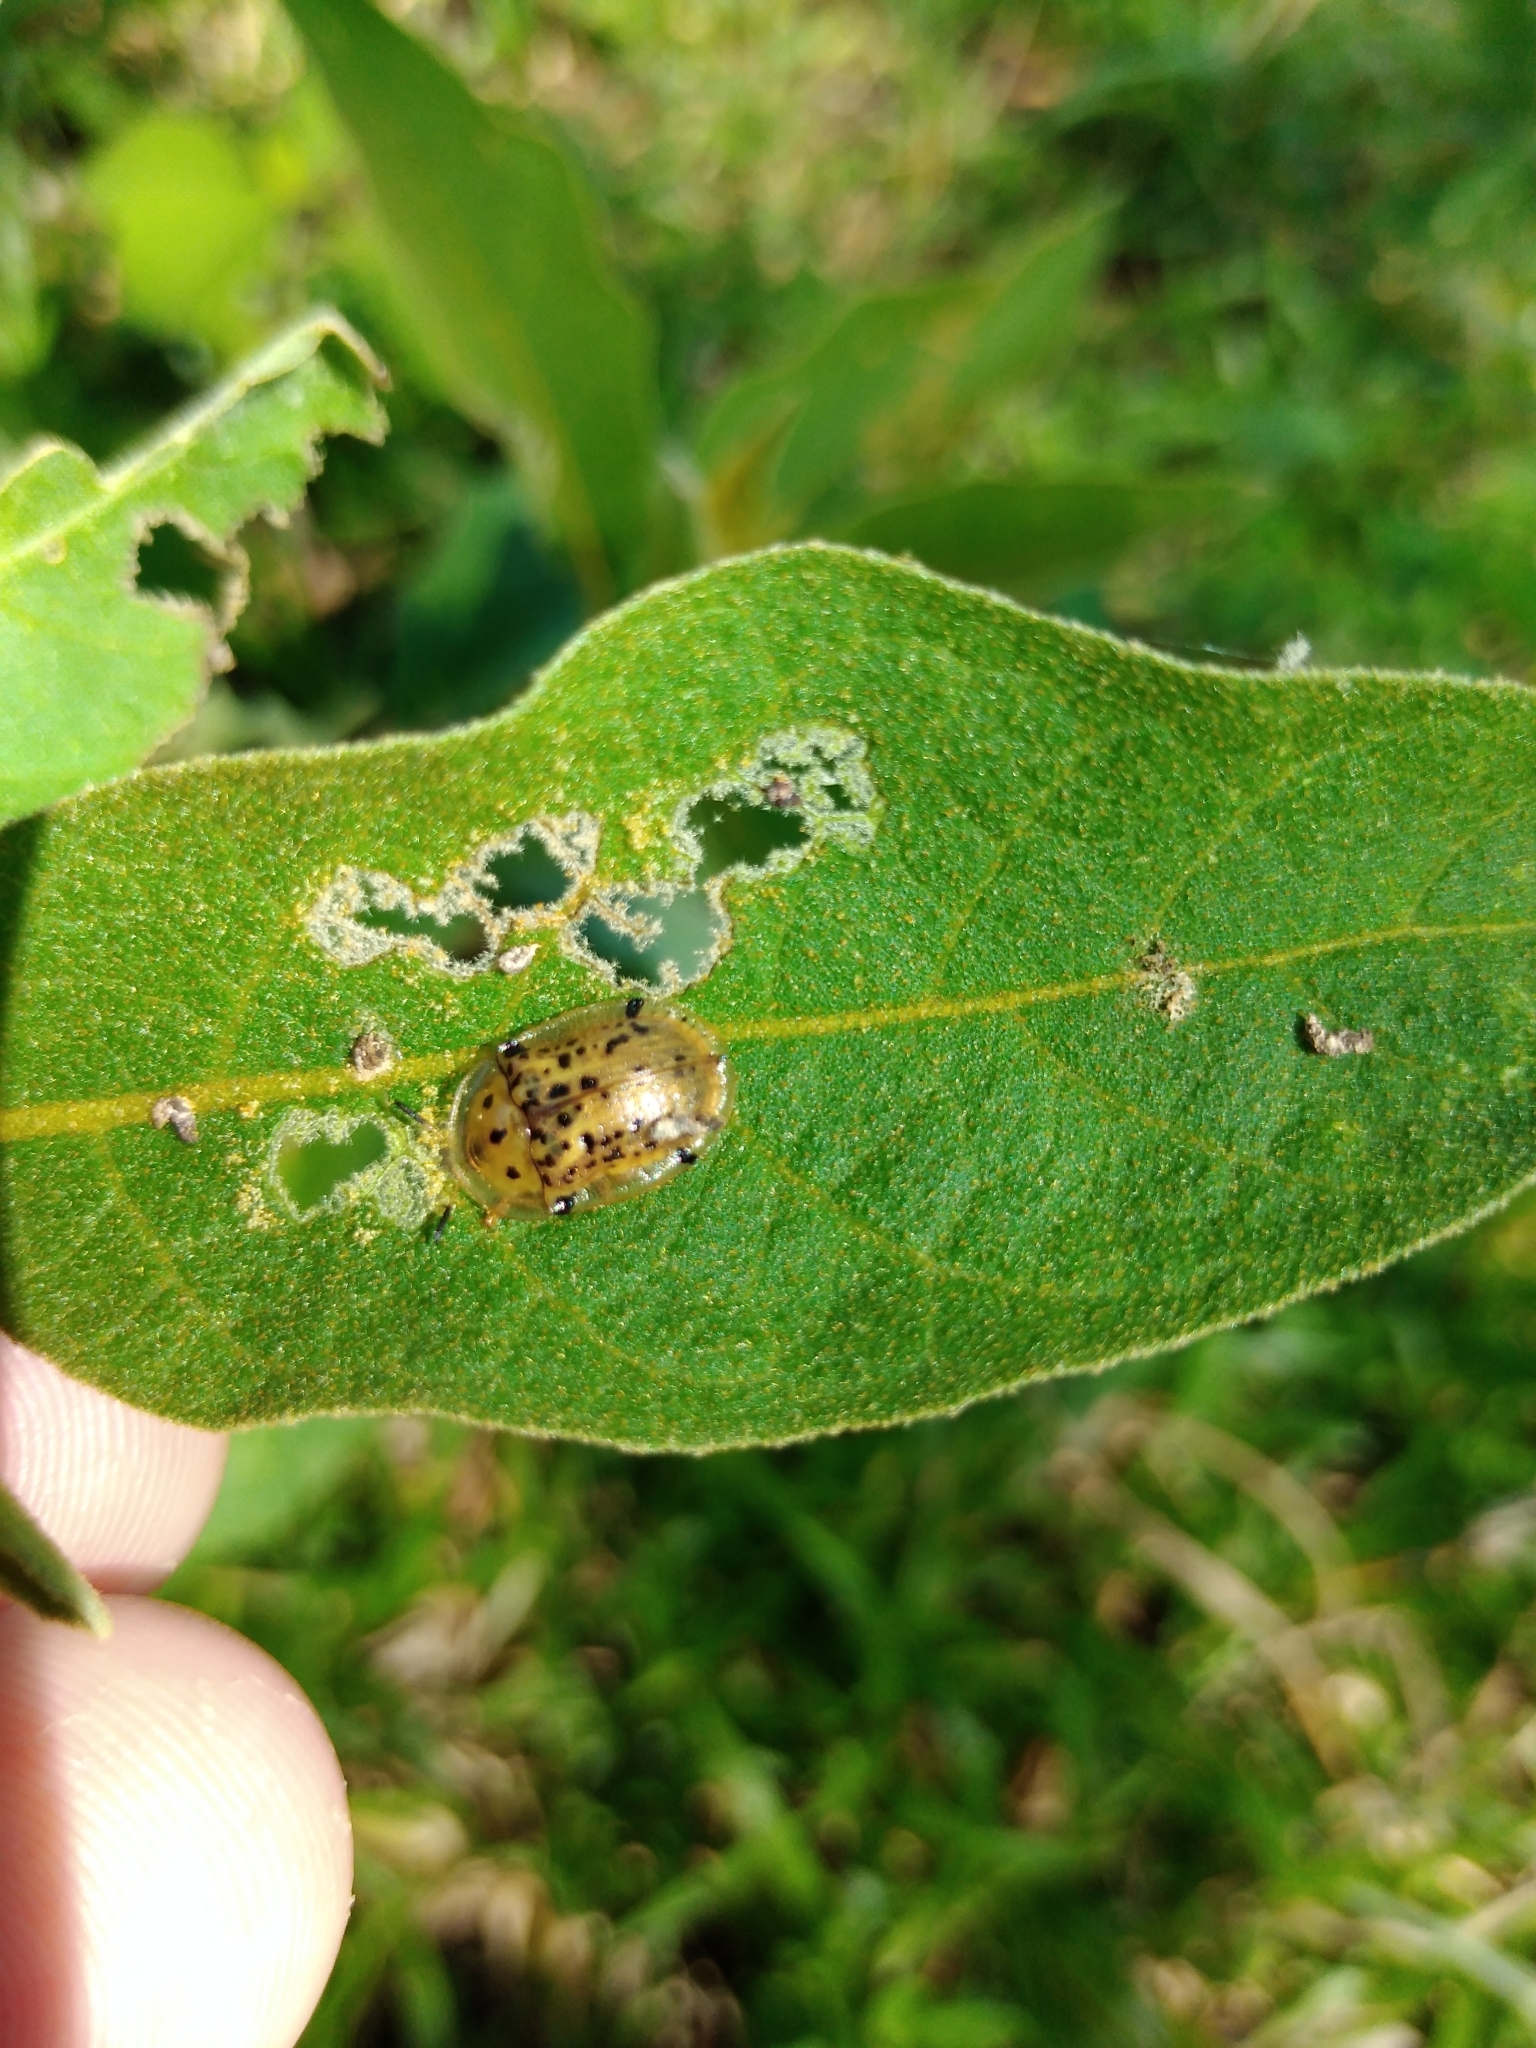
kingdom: Animalia
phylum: Arthropoda
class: Insecta
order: Coleoptera
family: Chrysomelidae
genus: Conchyloctenia
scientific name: Conchyloctenia tripuncticollis
